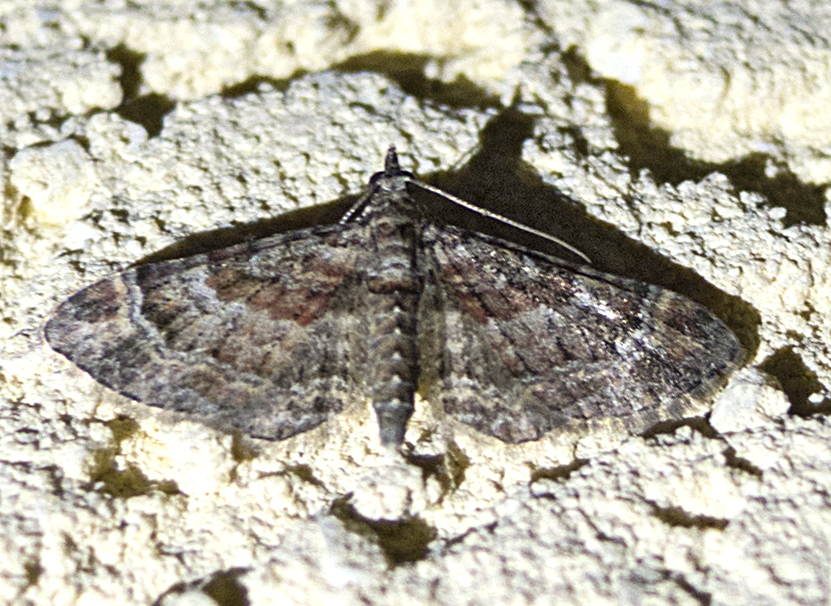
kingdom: Animalia
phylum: Arthropoda
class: Insecta
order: Lepidoptera
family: Geometridae
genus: Gymnoscelis
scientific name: Gymnoscelis rufifasciata
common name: Double-striped pug
